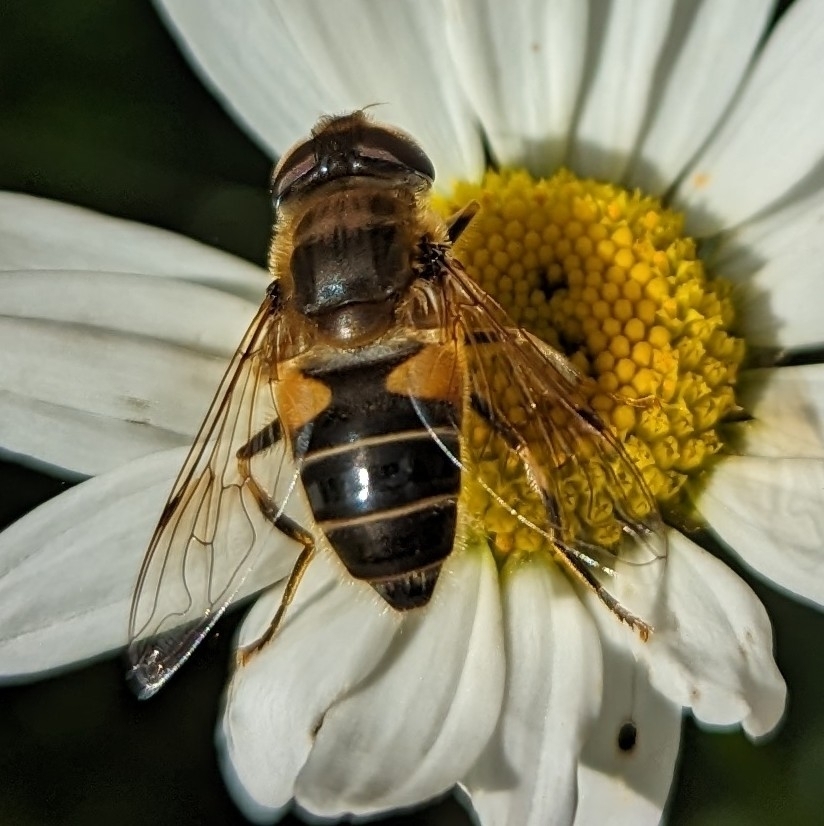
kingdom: Animalia
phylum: Arthropoda
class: Insecta
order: Diptera
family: Syrphidae
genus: Eristalis
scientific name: Eristalis pertinax
